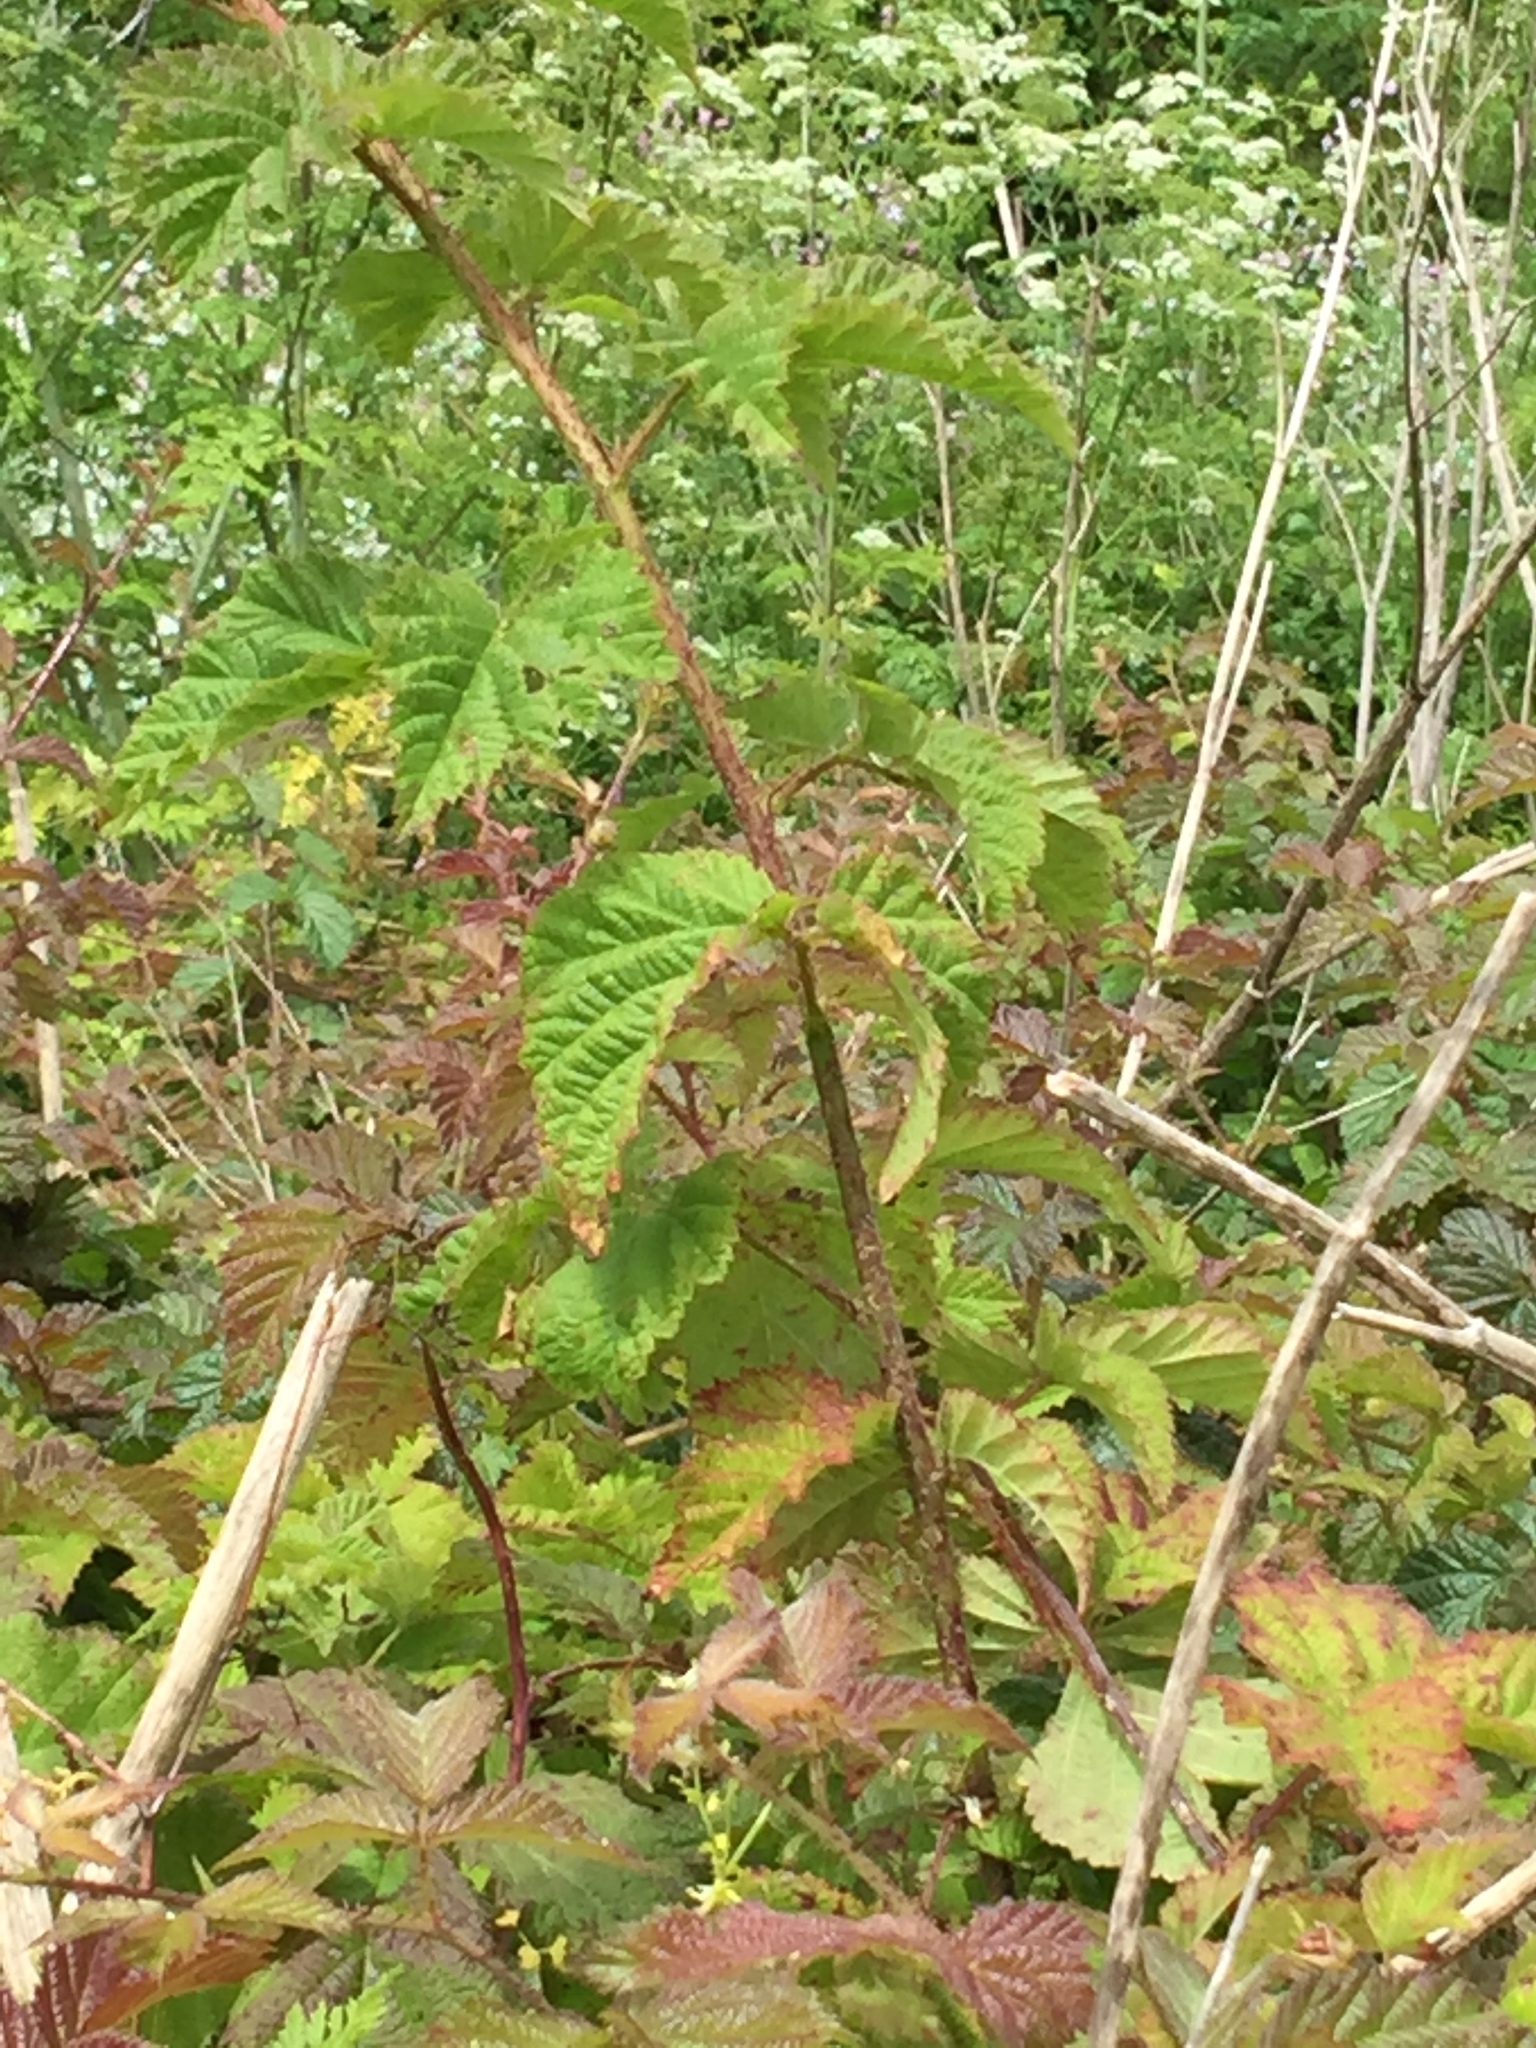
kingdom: Plantae
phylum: Tracheophyta
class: Magnoliopsida
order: Rosales
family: Rosaceae
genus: Rubus
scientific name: Rubus ursinus
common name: Pacific blackberry
